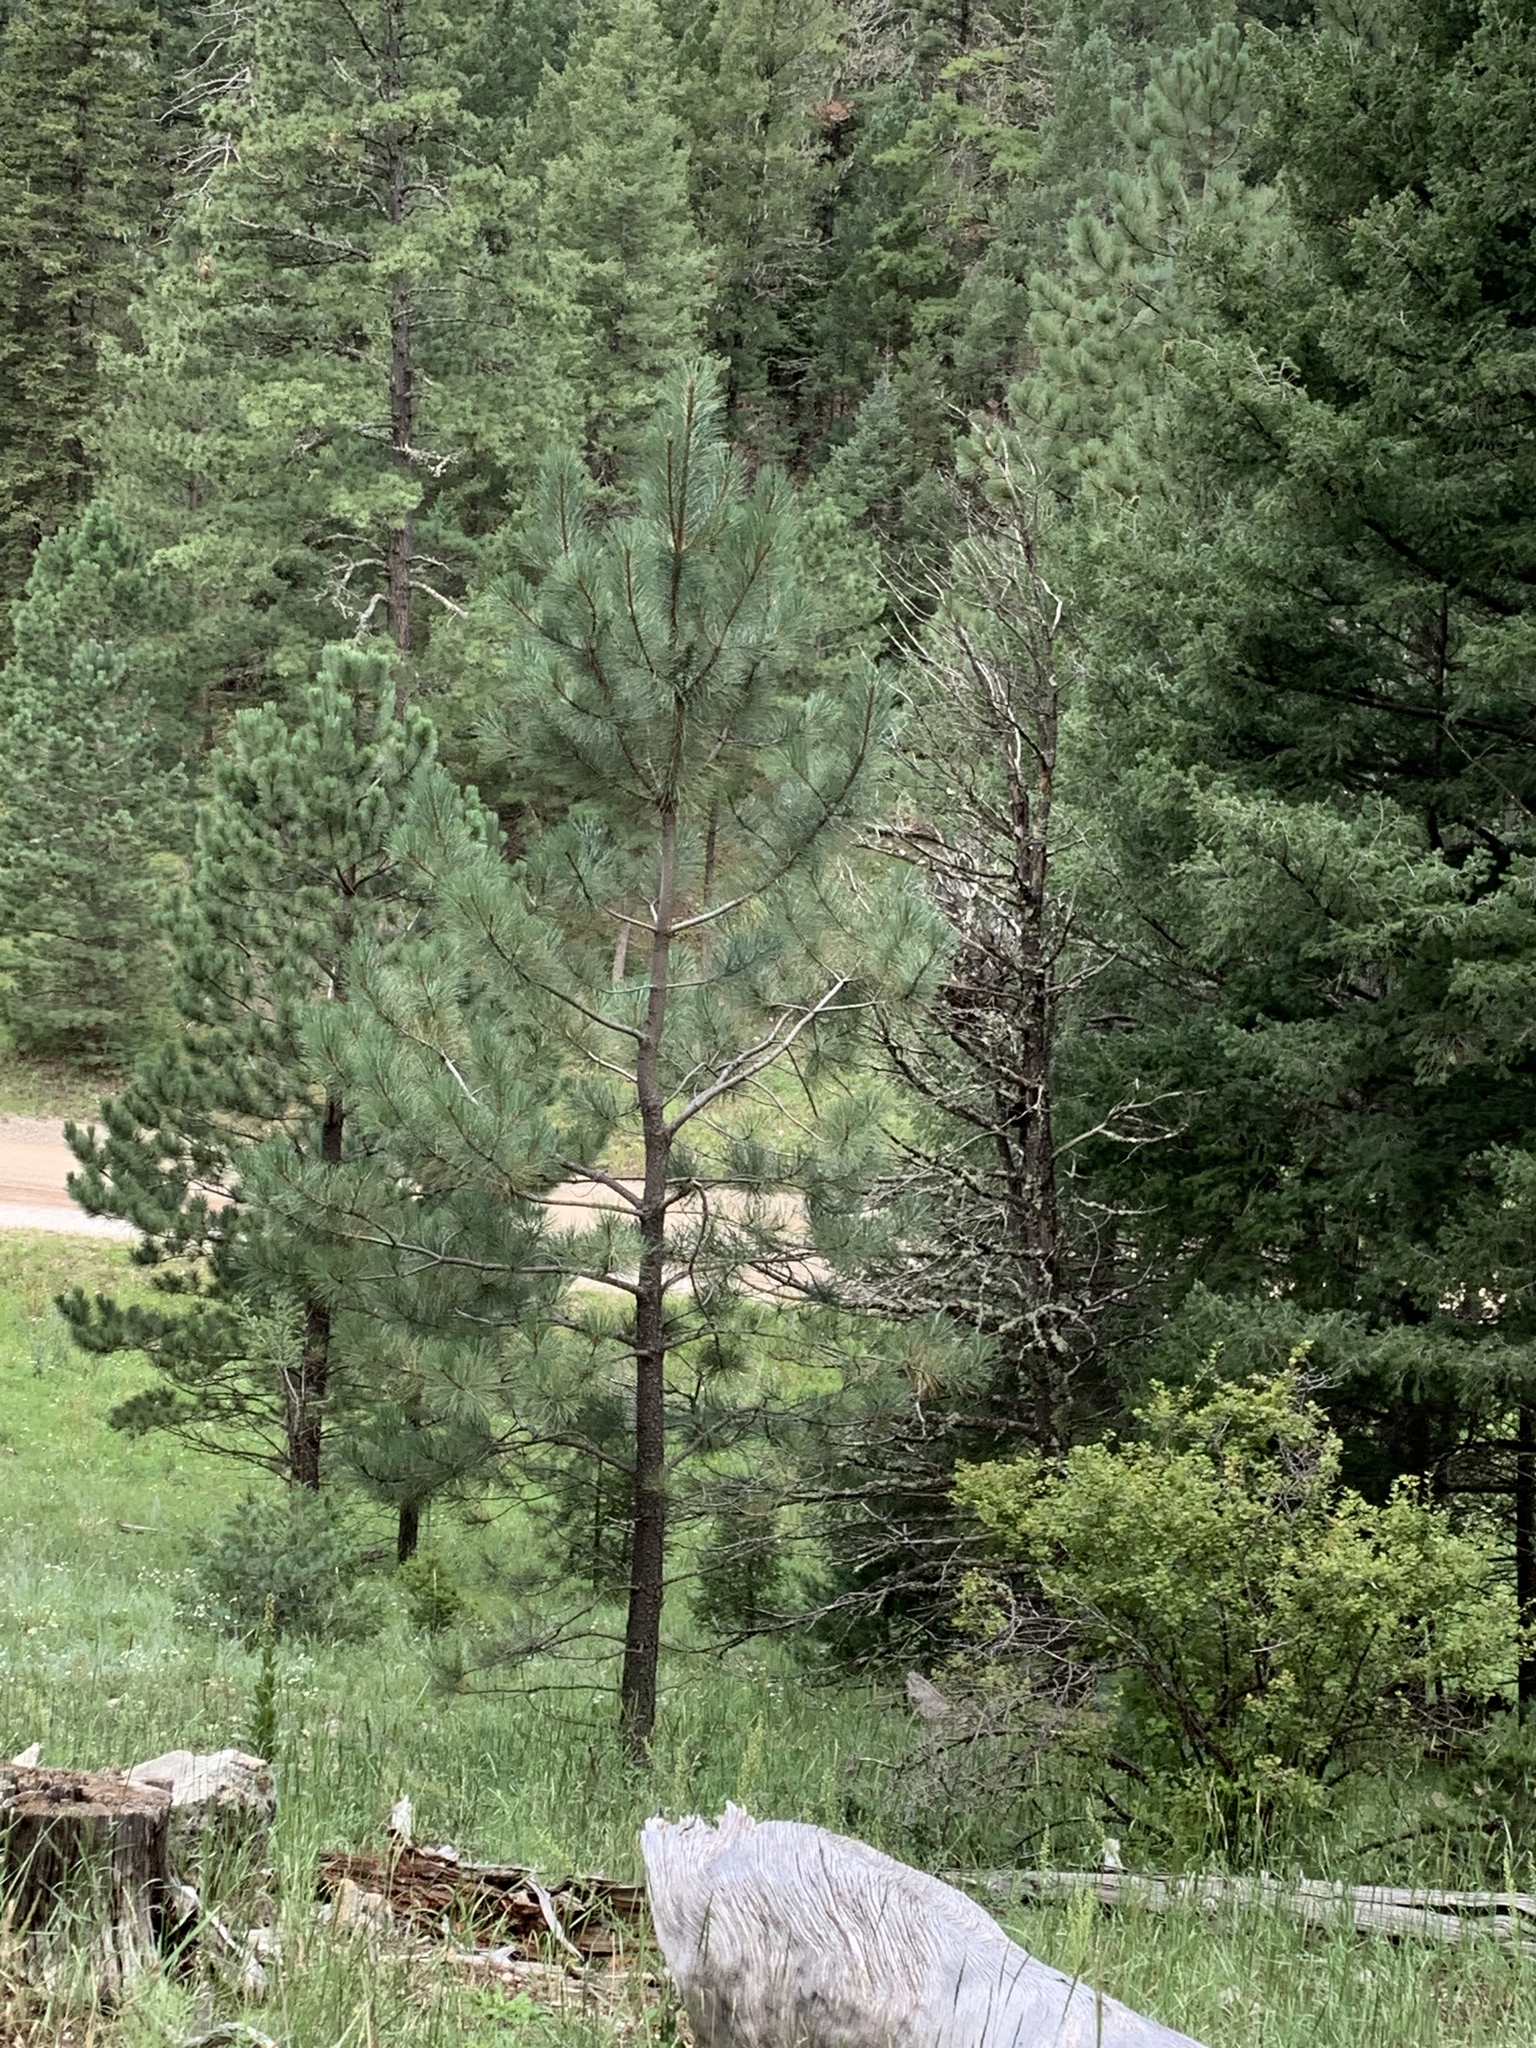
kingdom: Plantae
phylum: Tracheophyta
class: Pinopsida
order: Pinales
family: Pinaceae
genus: Pinus
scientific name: Pinus ponderosa
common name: Western yellow-pine
